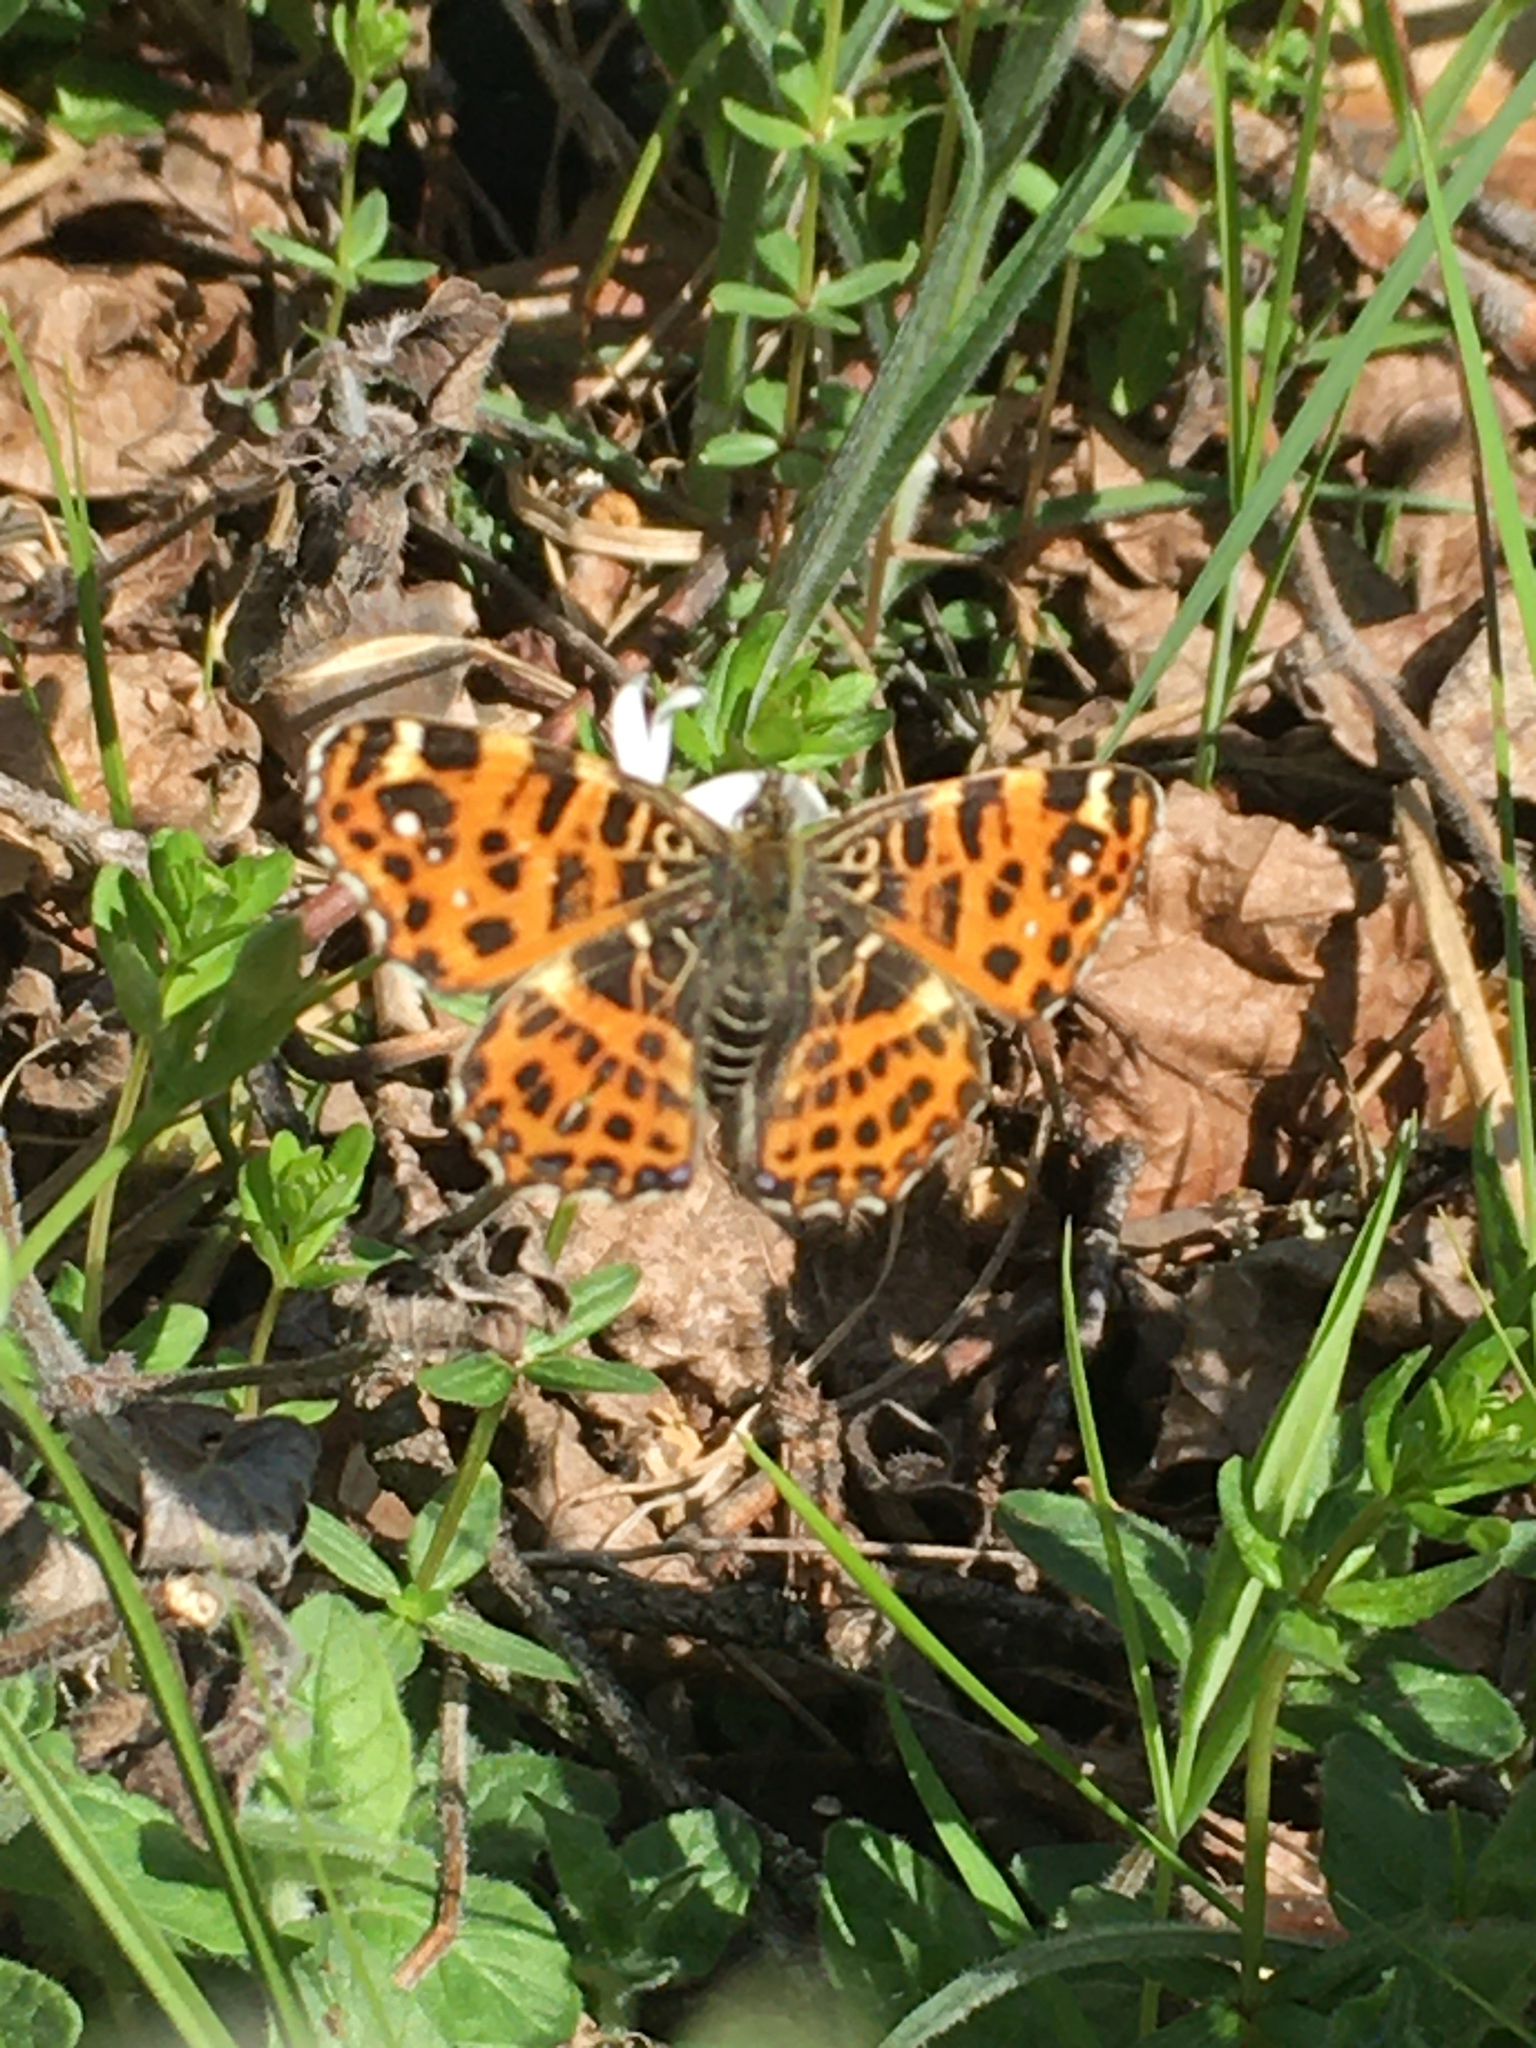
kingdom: Animalia
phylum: Arthropoda
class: Insecta
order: Lepidoptera
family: Nymphalidae
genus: Araschnia
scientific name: Araschnia levana
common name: Map butterfly
